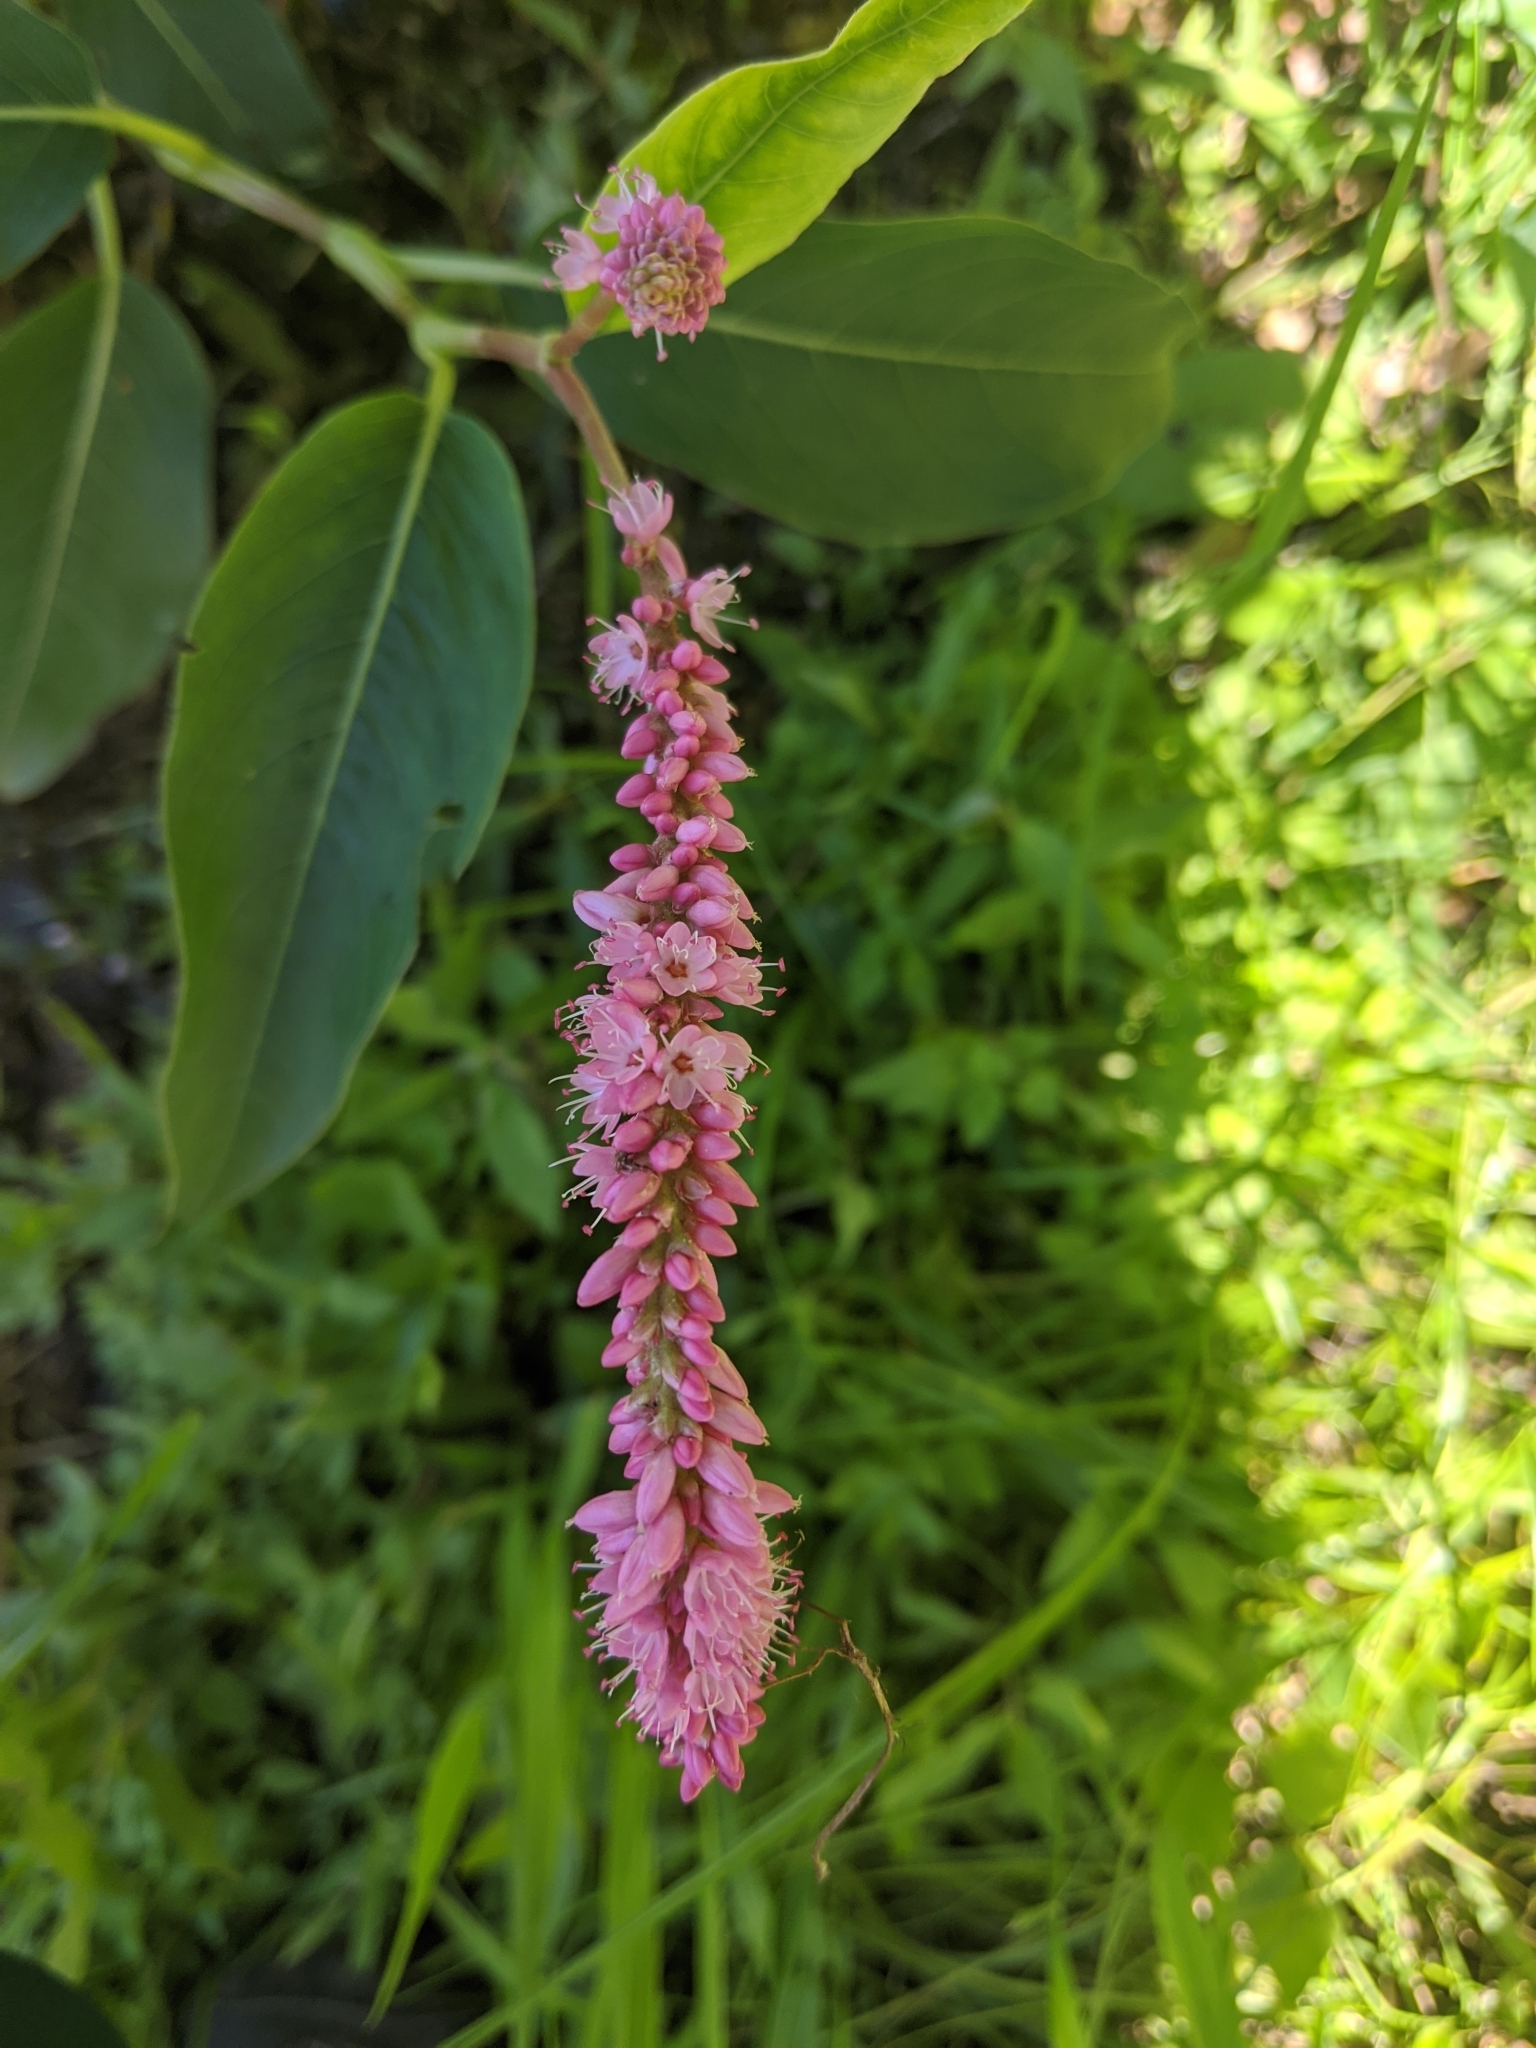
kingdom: Plantae
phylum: Tracheophyta
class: Magnoliopsida
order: Caryophyllales
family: Polygonaceae
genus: Persicaria
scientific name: Persicaria amphibia
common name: Amphibious bistort
